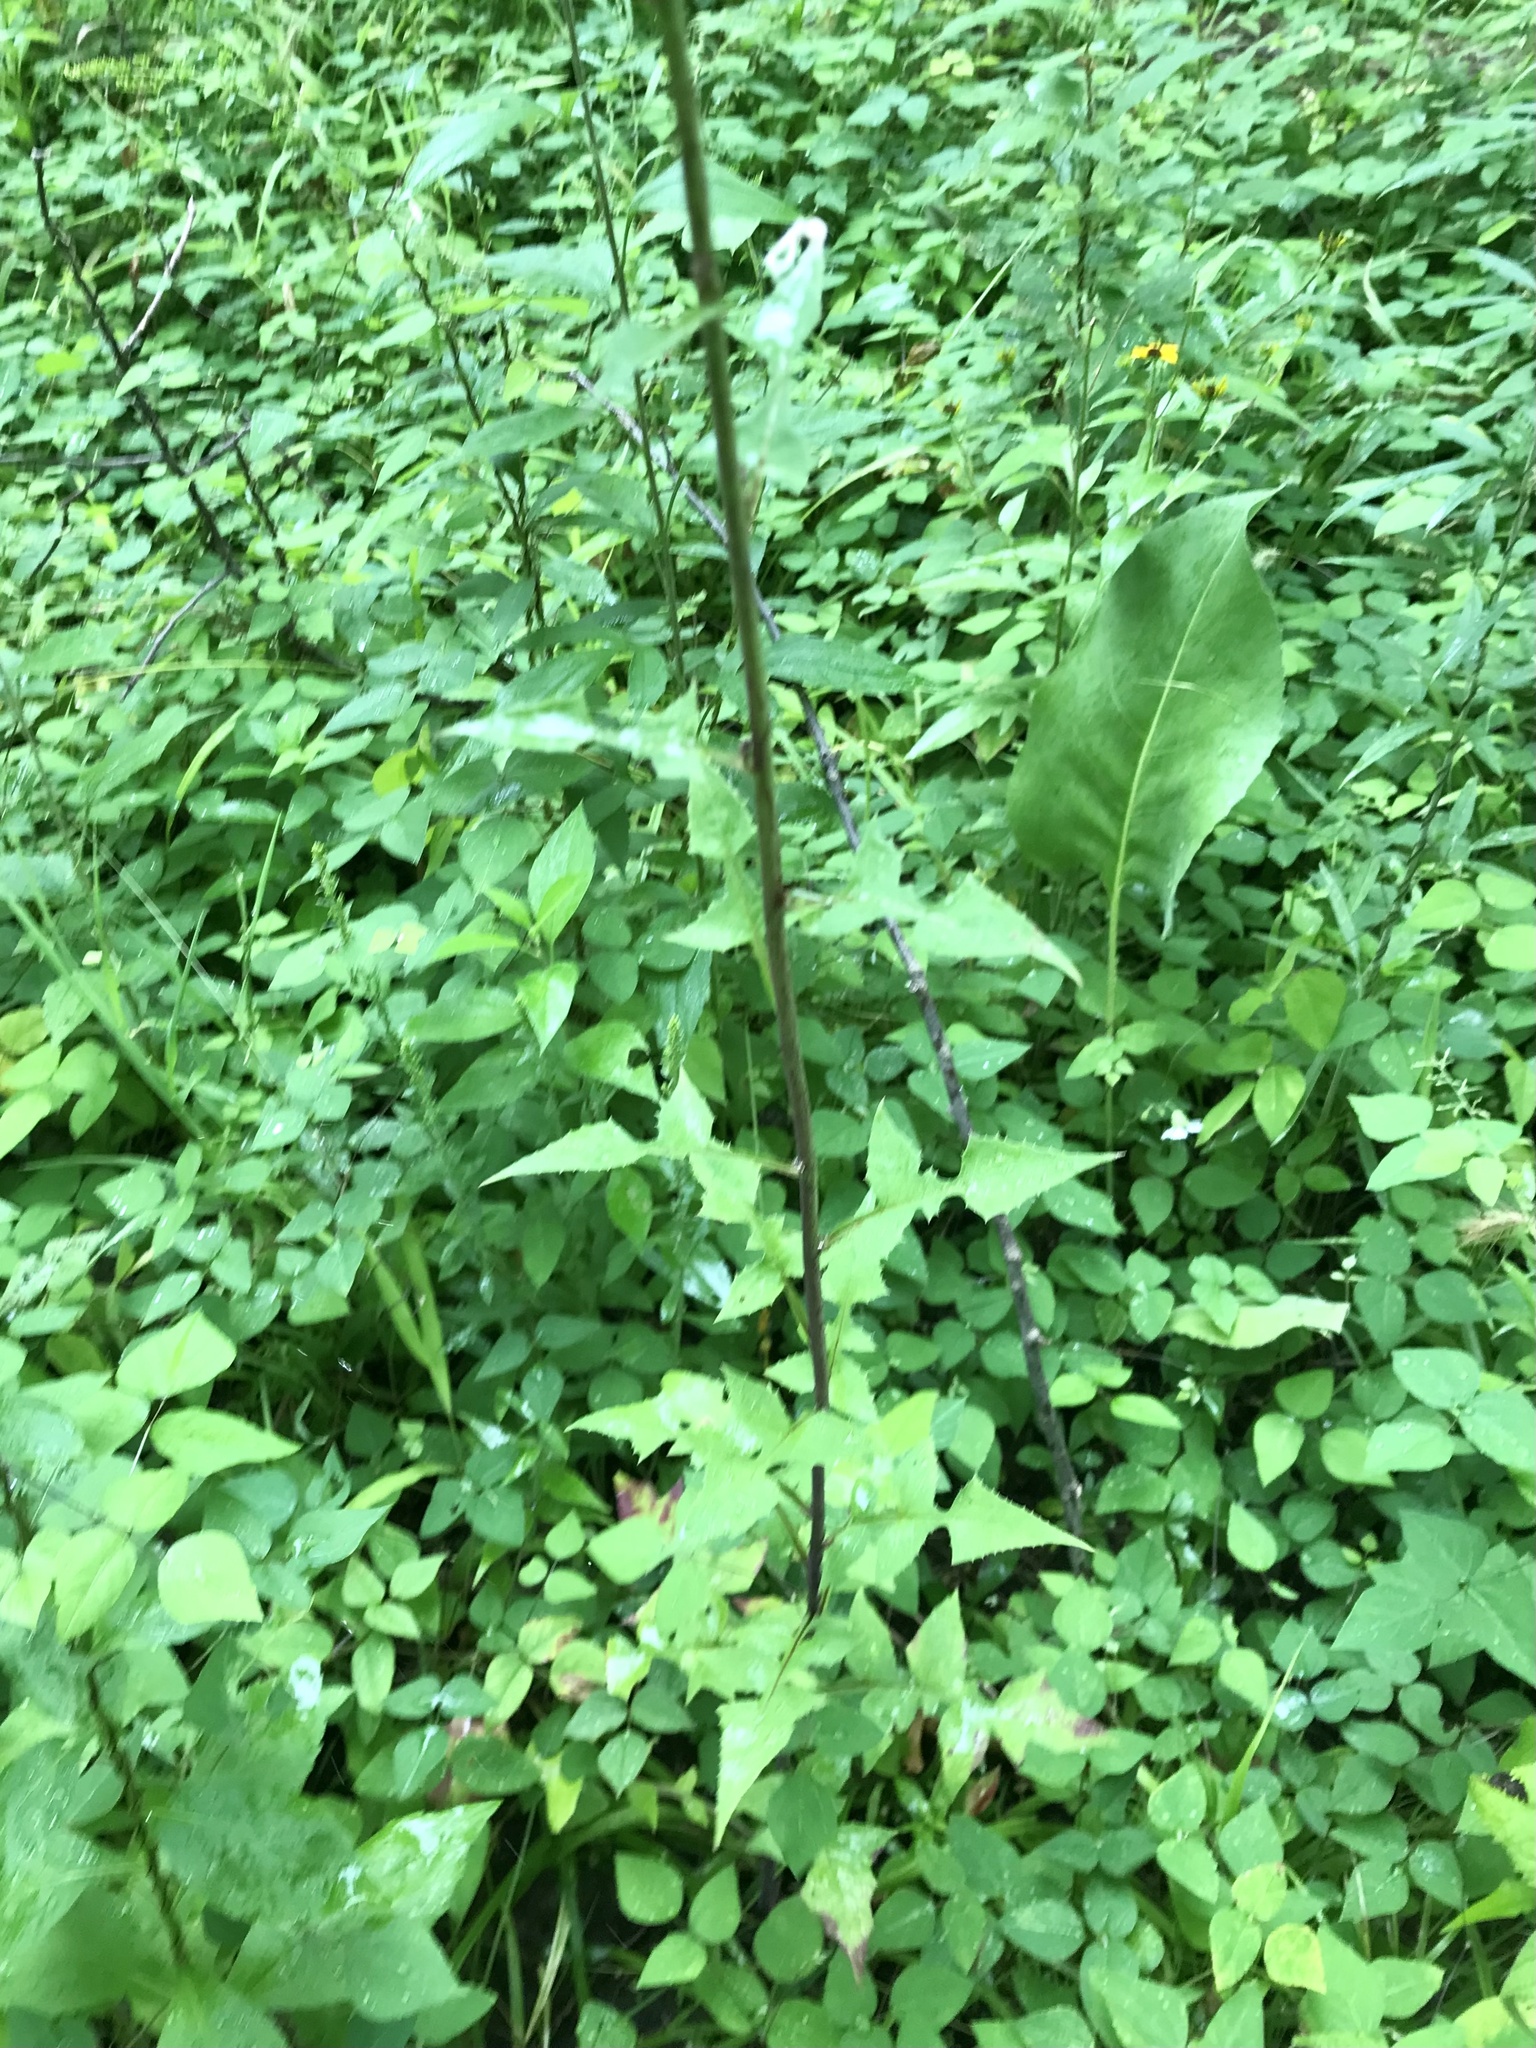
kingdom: Plantae
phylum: Tracheophyta
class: Magnoliopsida
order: Asterales
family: Asteraceae
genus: Lactuca
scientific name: Lactuca floridana
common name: Woodland lettuce
